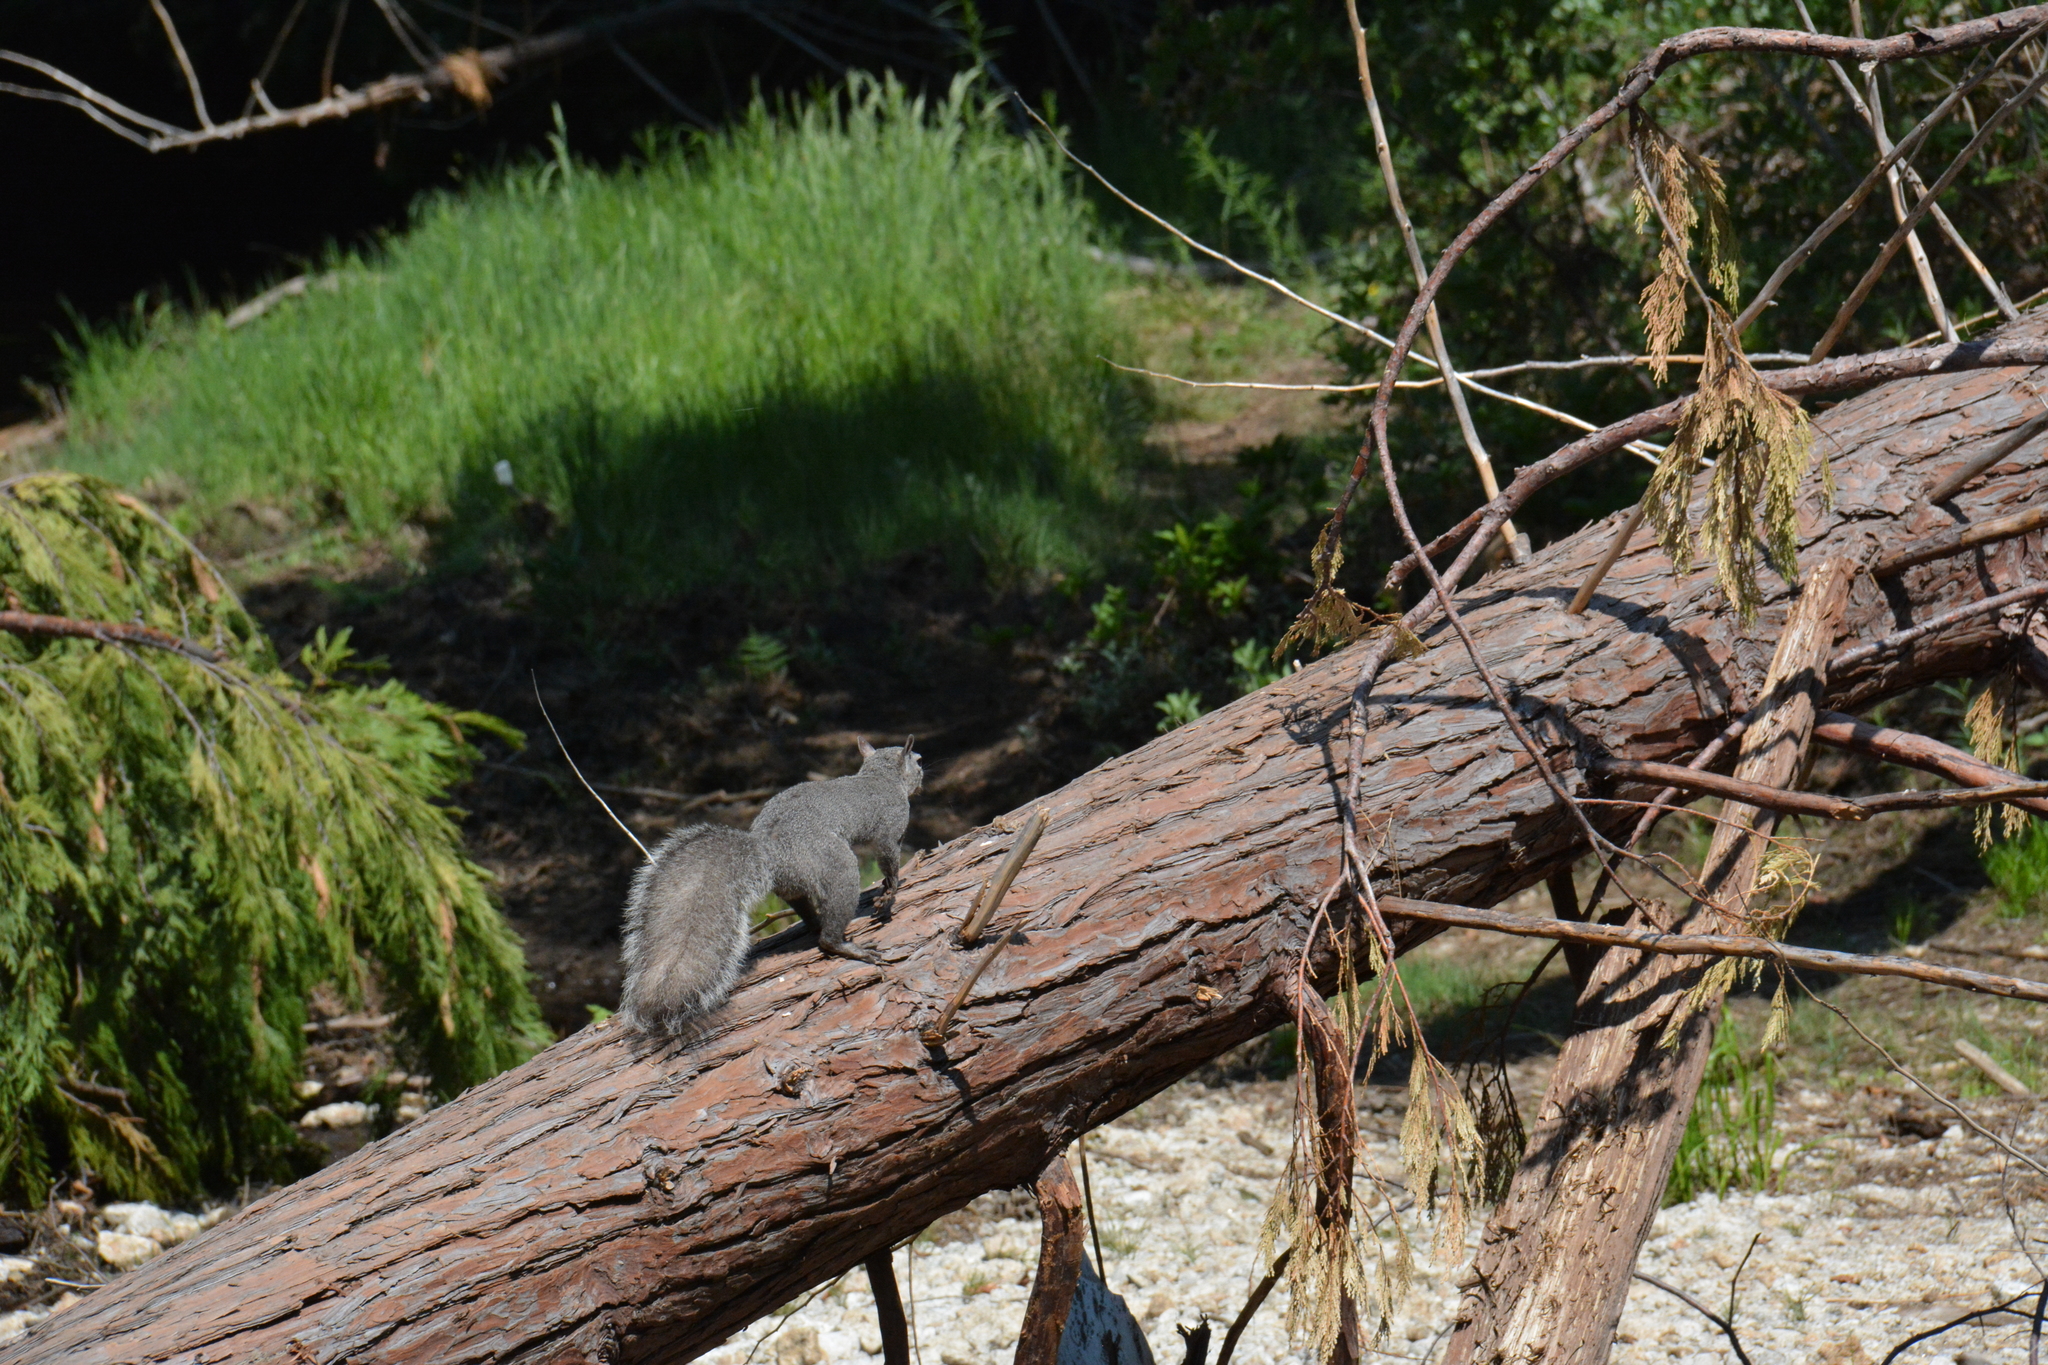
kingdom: Animalia
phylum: Chordata
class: Mammalia
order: Rodentia
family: Sciuridae
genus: Sciurus
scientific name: Sciurus griseus
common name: Western gray squirrel
